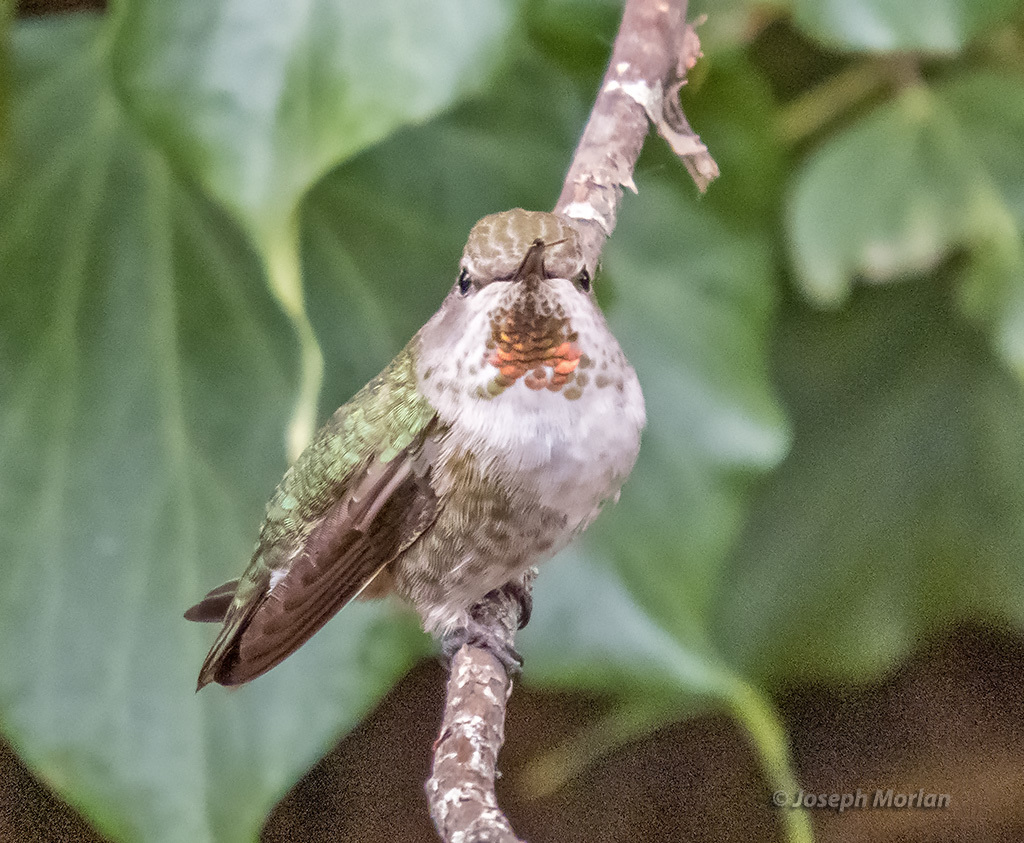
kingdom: Animalia
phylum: Chordata
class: Aves
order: Apodiformes
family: Trochilidae
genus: Calypte
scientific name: Calypte anna
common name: Anna's hummingbird
